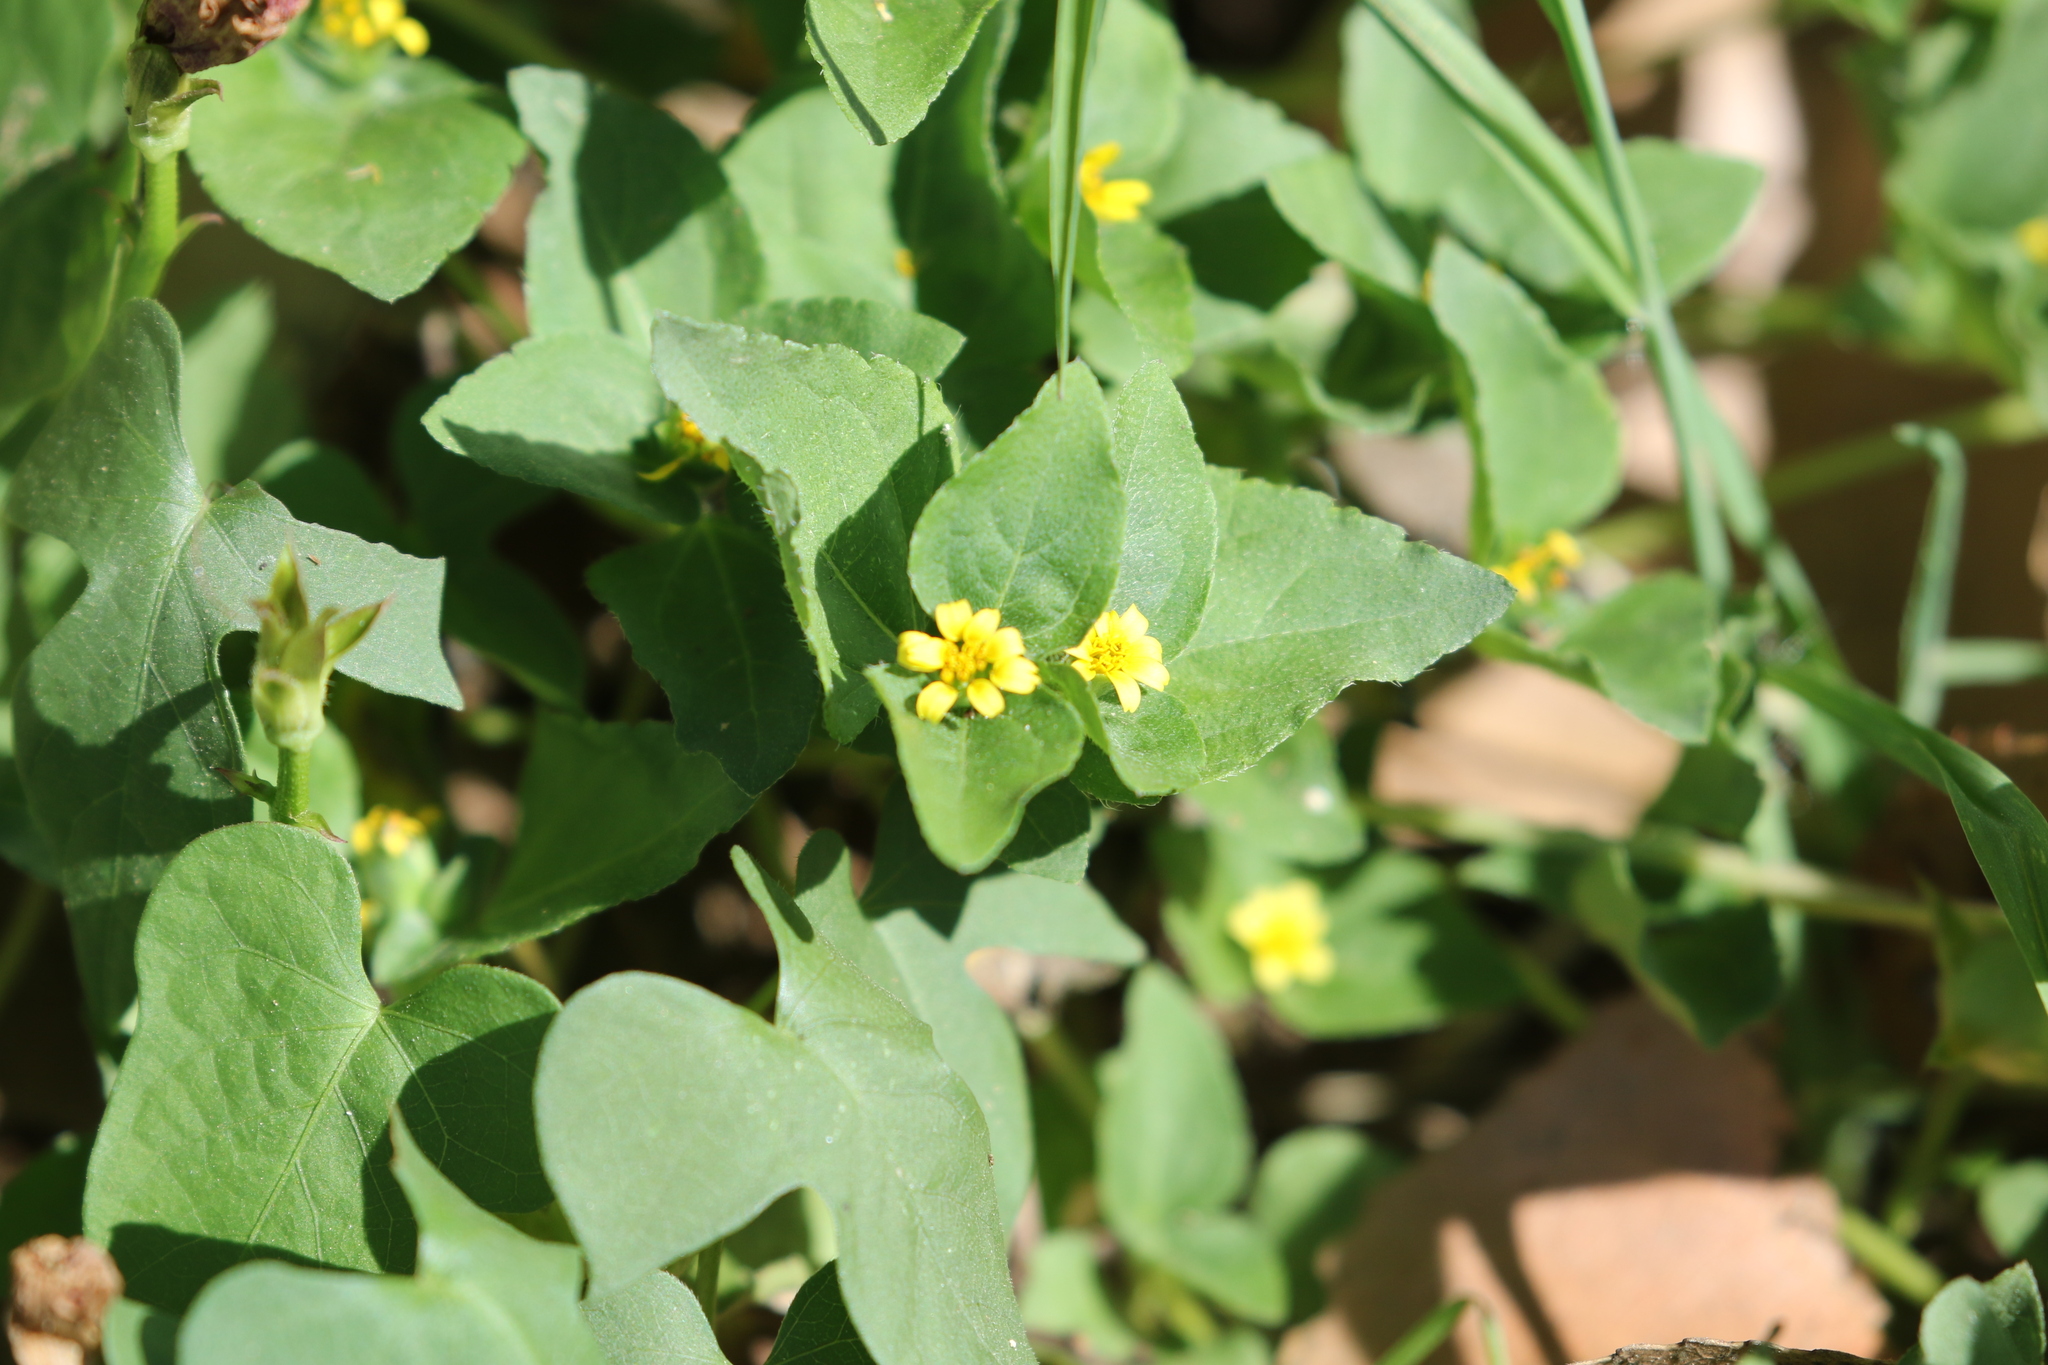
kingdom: Plantae
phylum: Tracheophyta
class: Magnoliopsida
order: Asterales
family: Asteraceae
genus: Calyptocarpus
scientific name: Calyptocarpus vialis
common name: Straggler daisy
